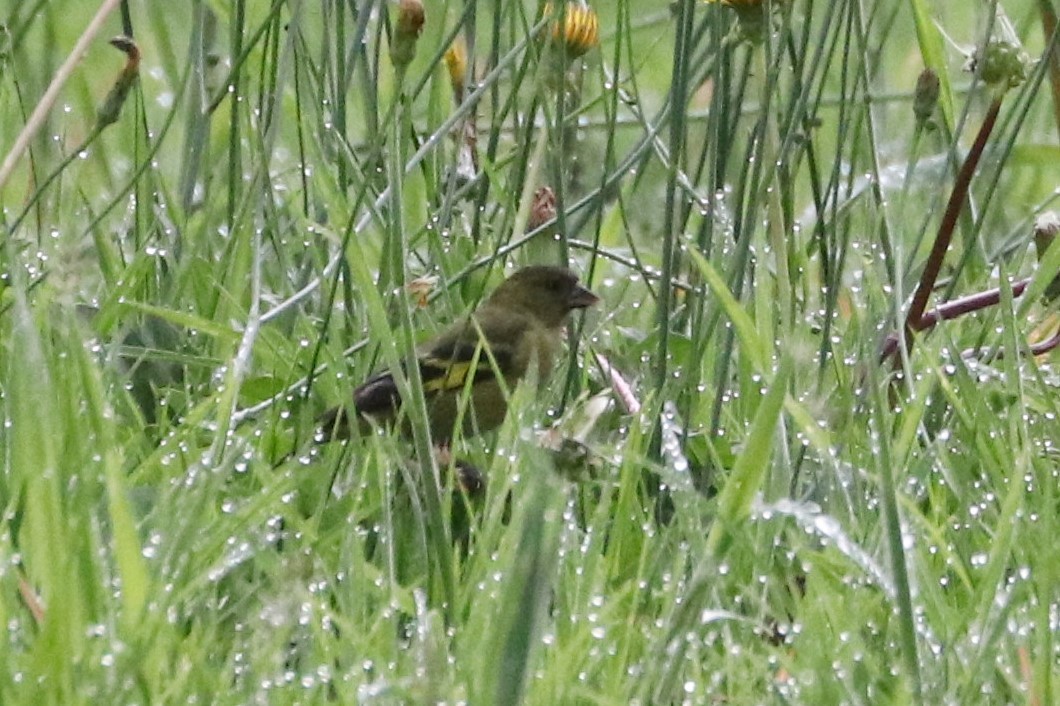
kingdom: Animalia
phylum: Chordata
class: Aves
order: Passeriformes
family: Fringillidae
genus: Spinus
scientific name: Spinus spinescens
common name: Andean siskin
